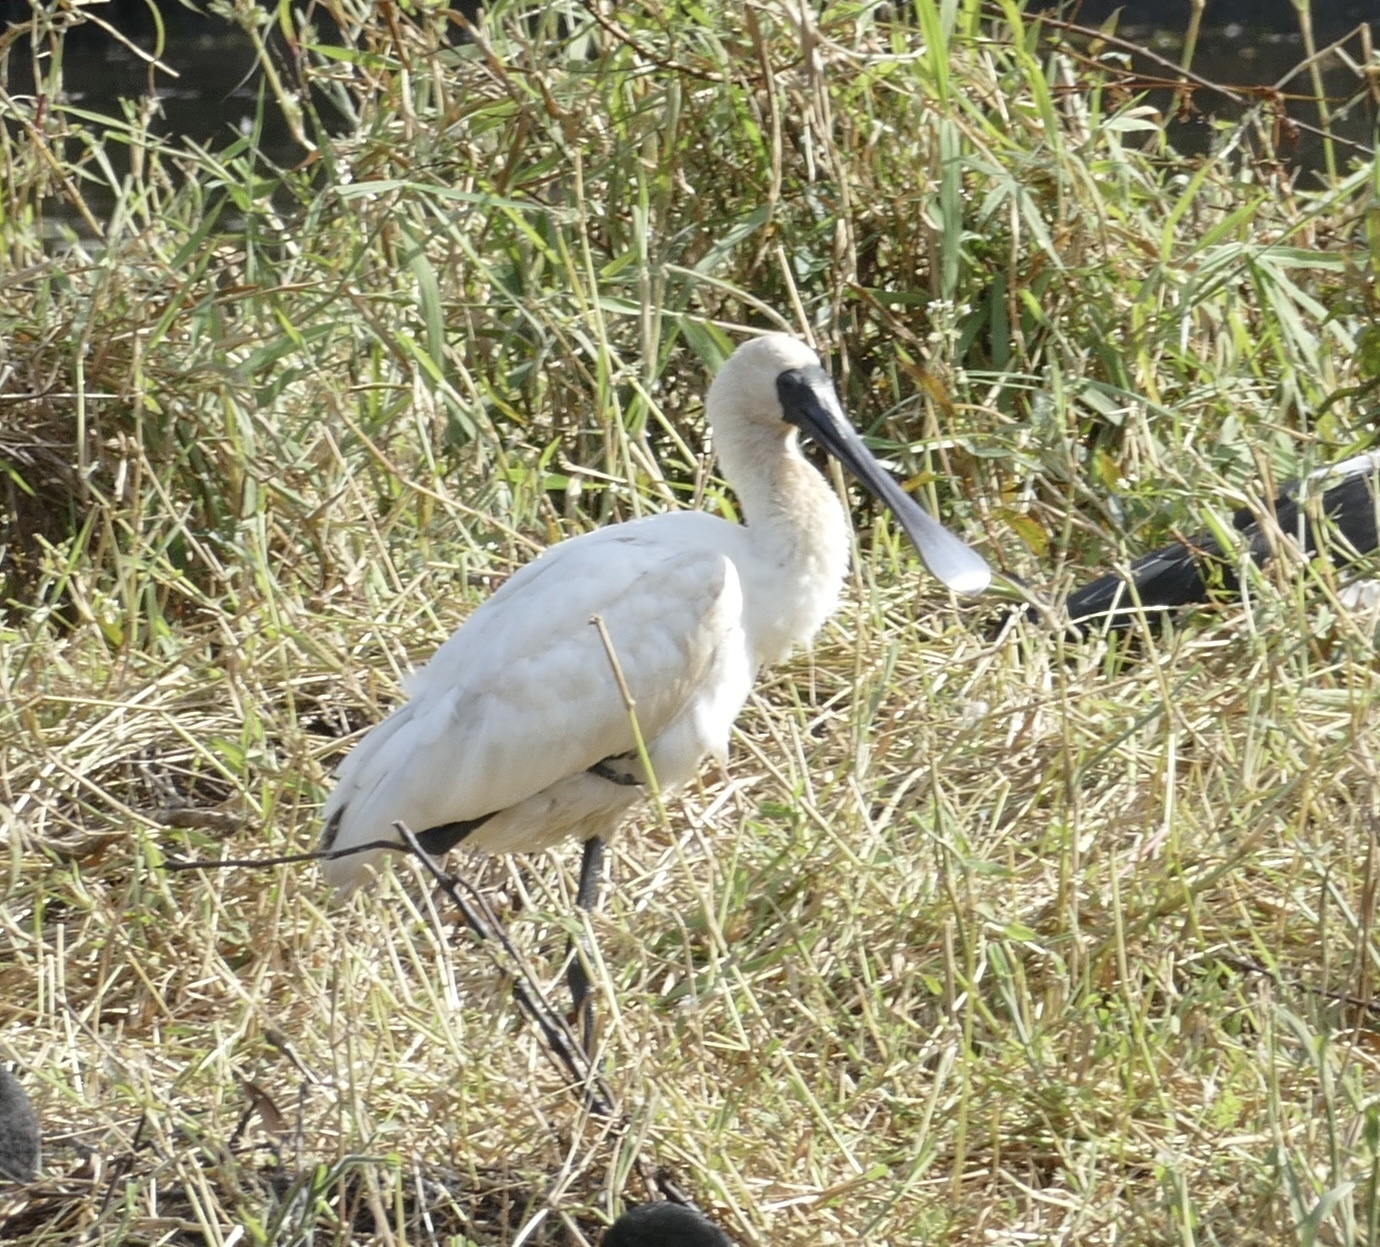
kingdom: Animalia
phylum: Chordata
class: Aves
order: Pelecaniformes
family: Threskiornithidae
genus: Platalea
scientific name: Platalea regia
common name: Royal spoonbill
